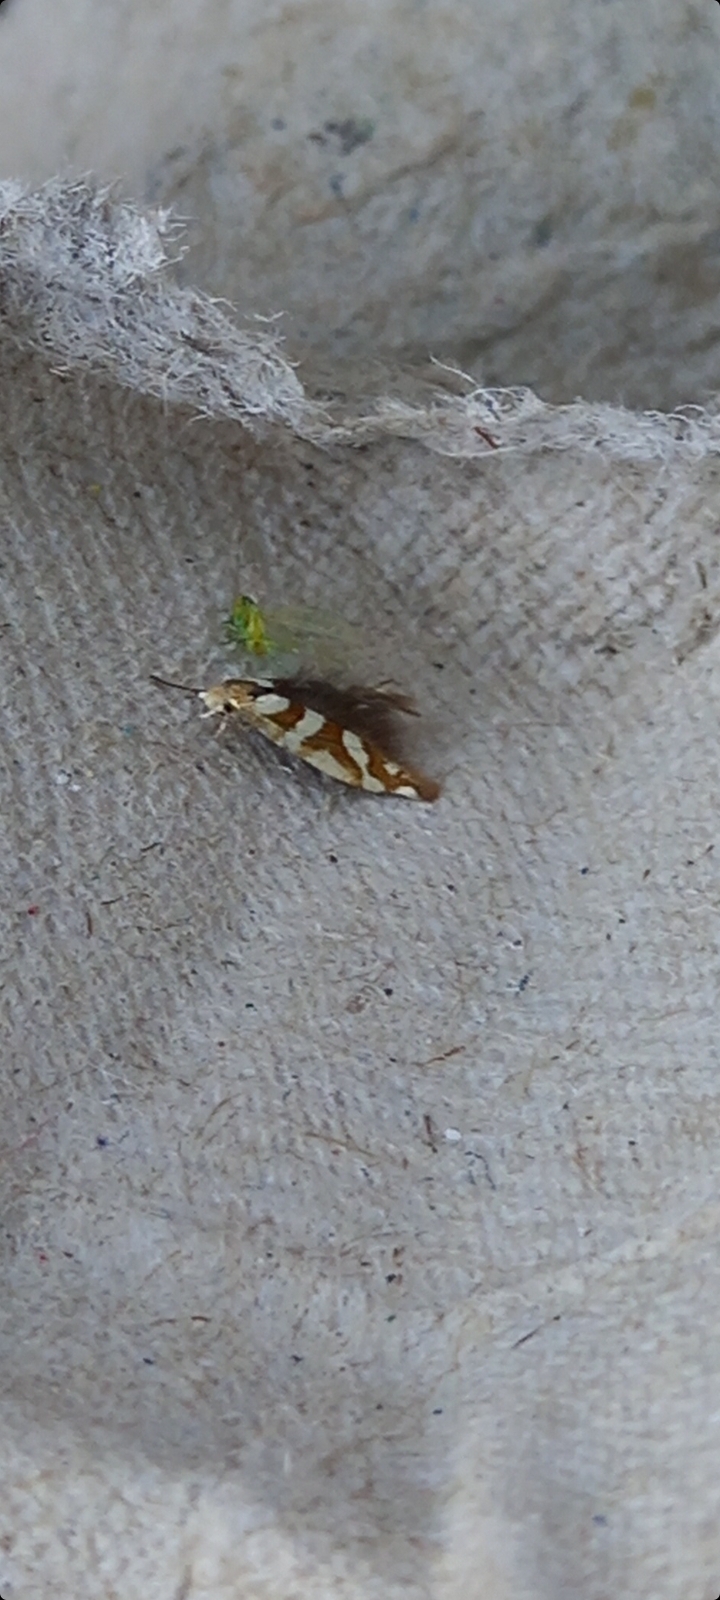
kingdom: Animalia
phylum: Arthropoda
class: Insecta
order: Lepidoptera
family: Argyresthiidae
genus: Argyresthia
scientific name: Argyresthia goedartella
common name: Golden argent
